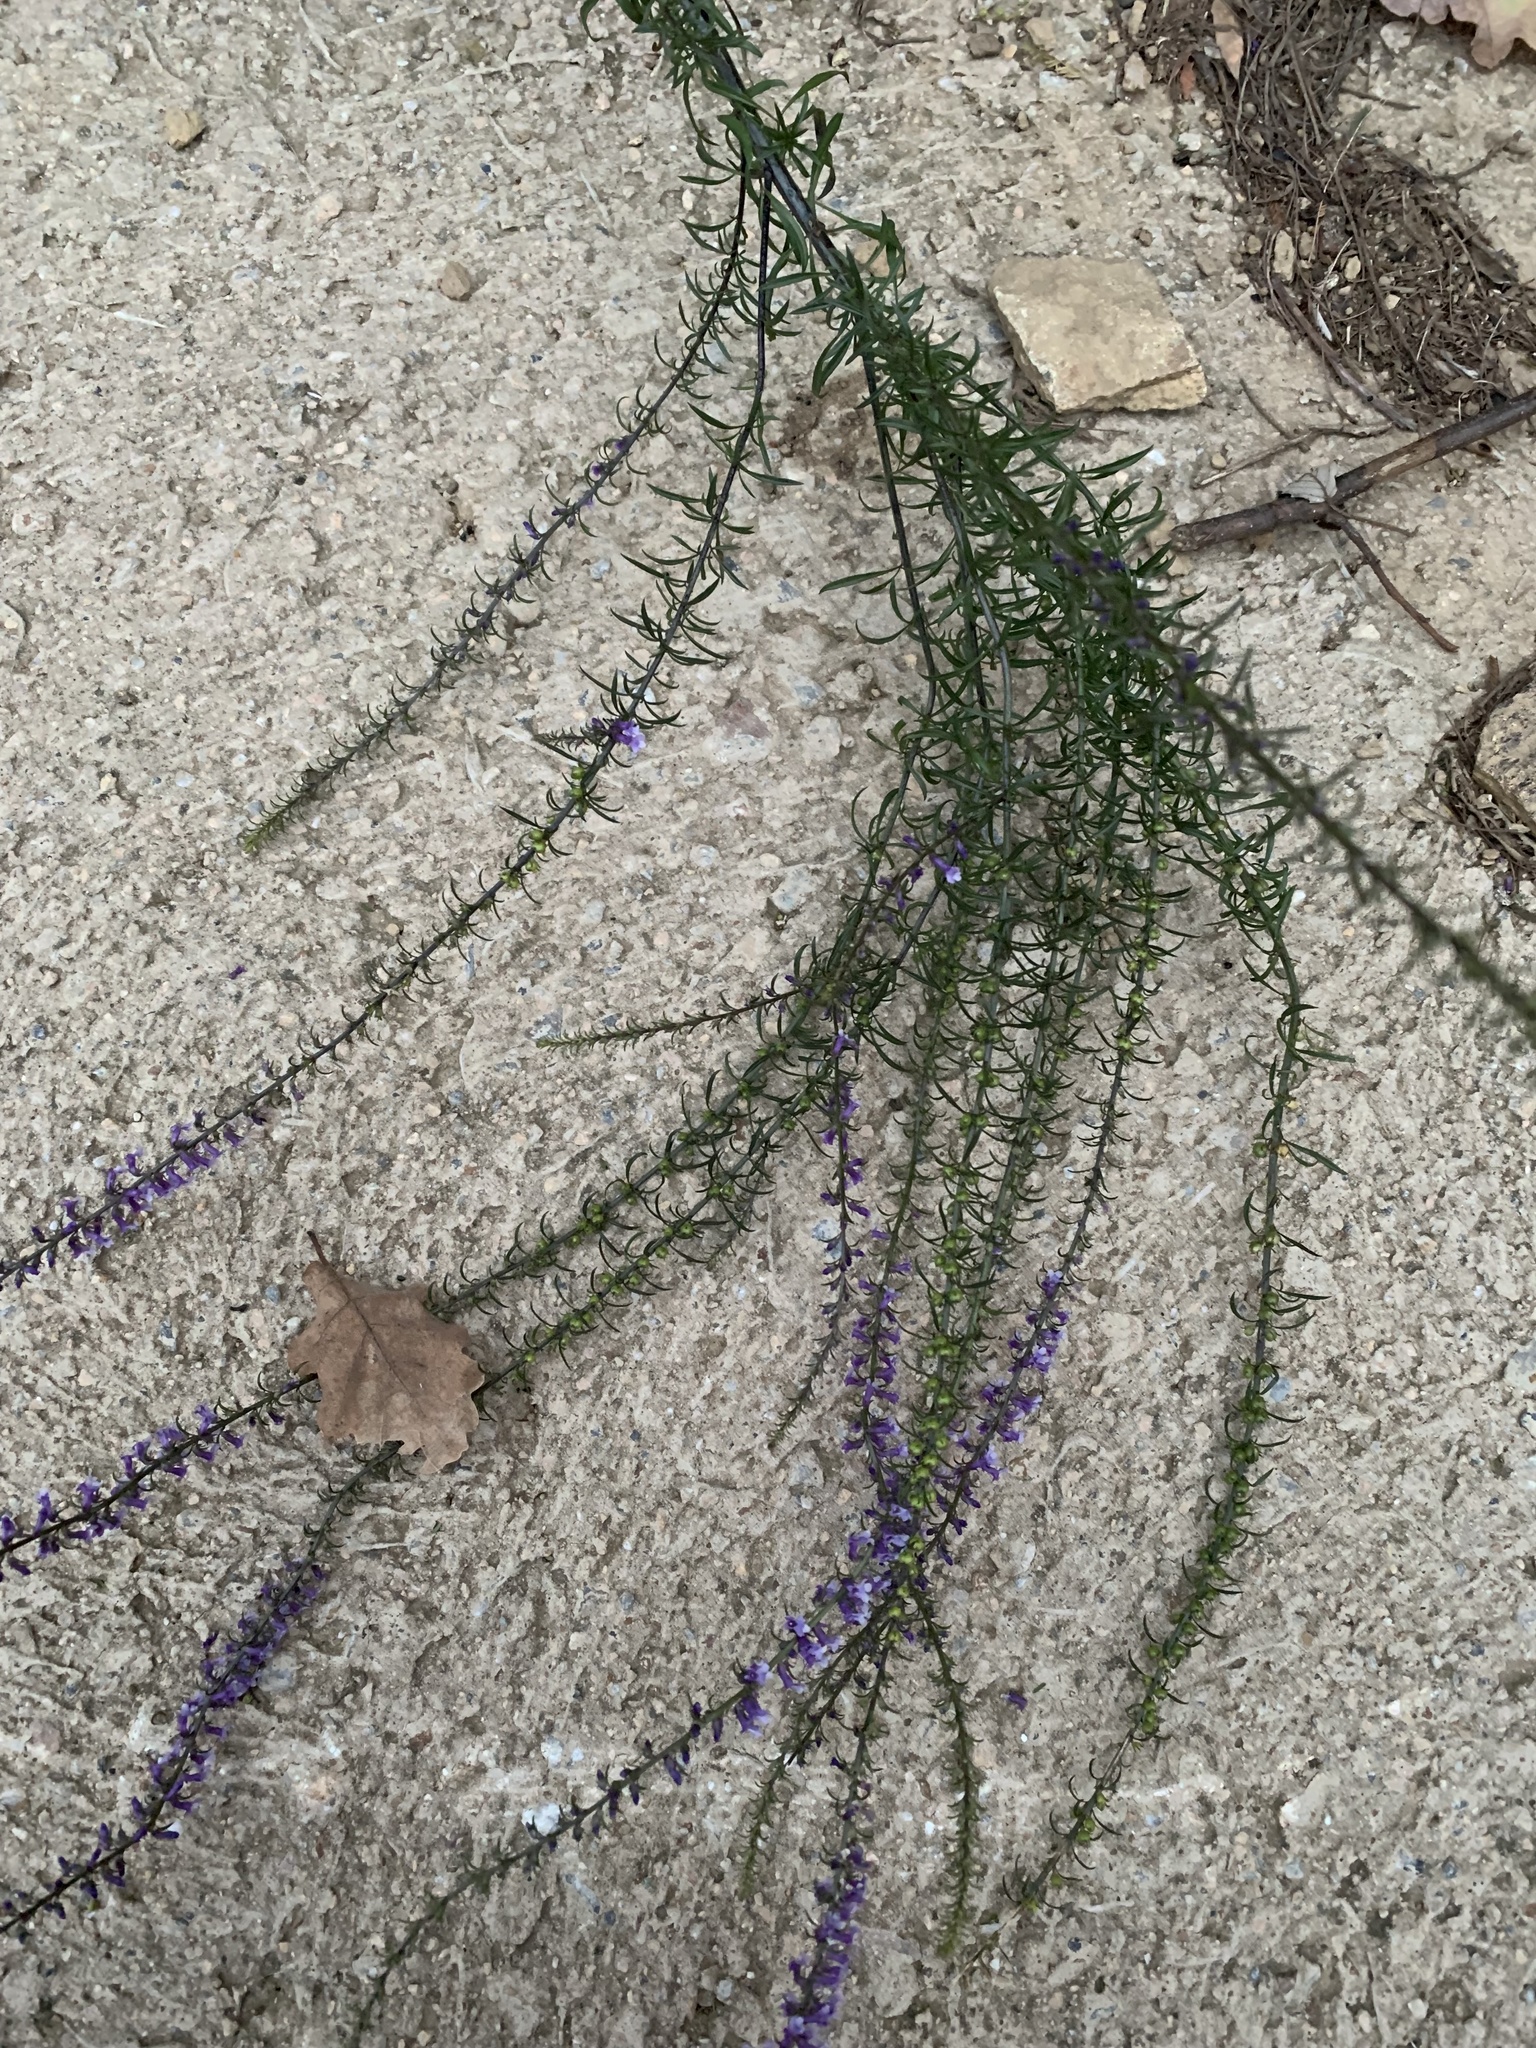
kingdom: Plantae
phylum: Tracheophyta
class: Magnoliopsida
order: Lamiales
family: Plantaginaceae
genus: Anarrhinum
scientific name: Anarrhinum bellidifolium
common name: Daisy-leaved toadflax
